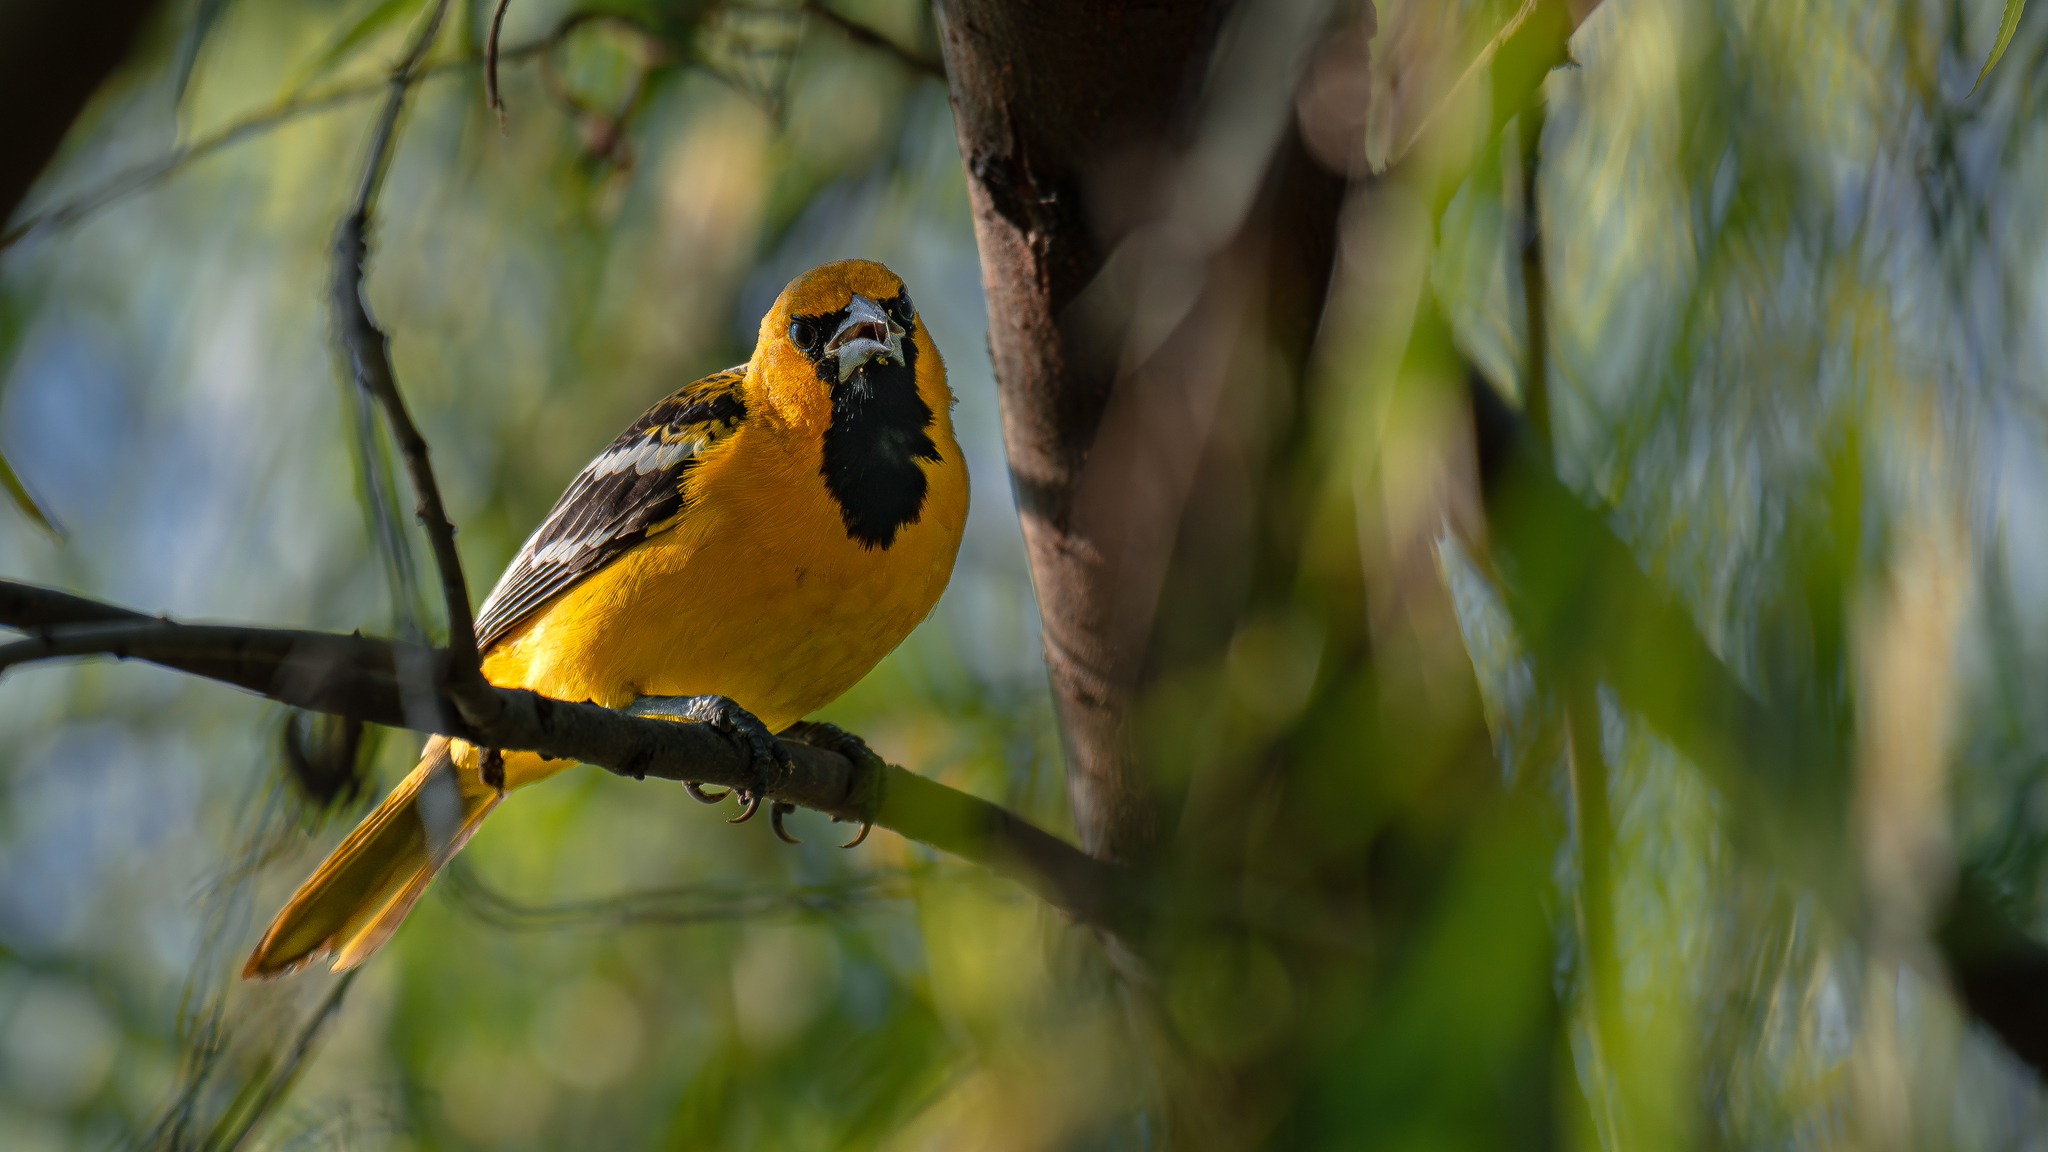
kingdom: Animalia
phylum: Chordata
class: Aves
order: Passeriformes
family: Icteridae
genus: Icterus
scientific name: Icterus pustulatus
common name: Streak-backed oriole
